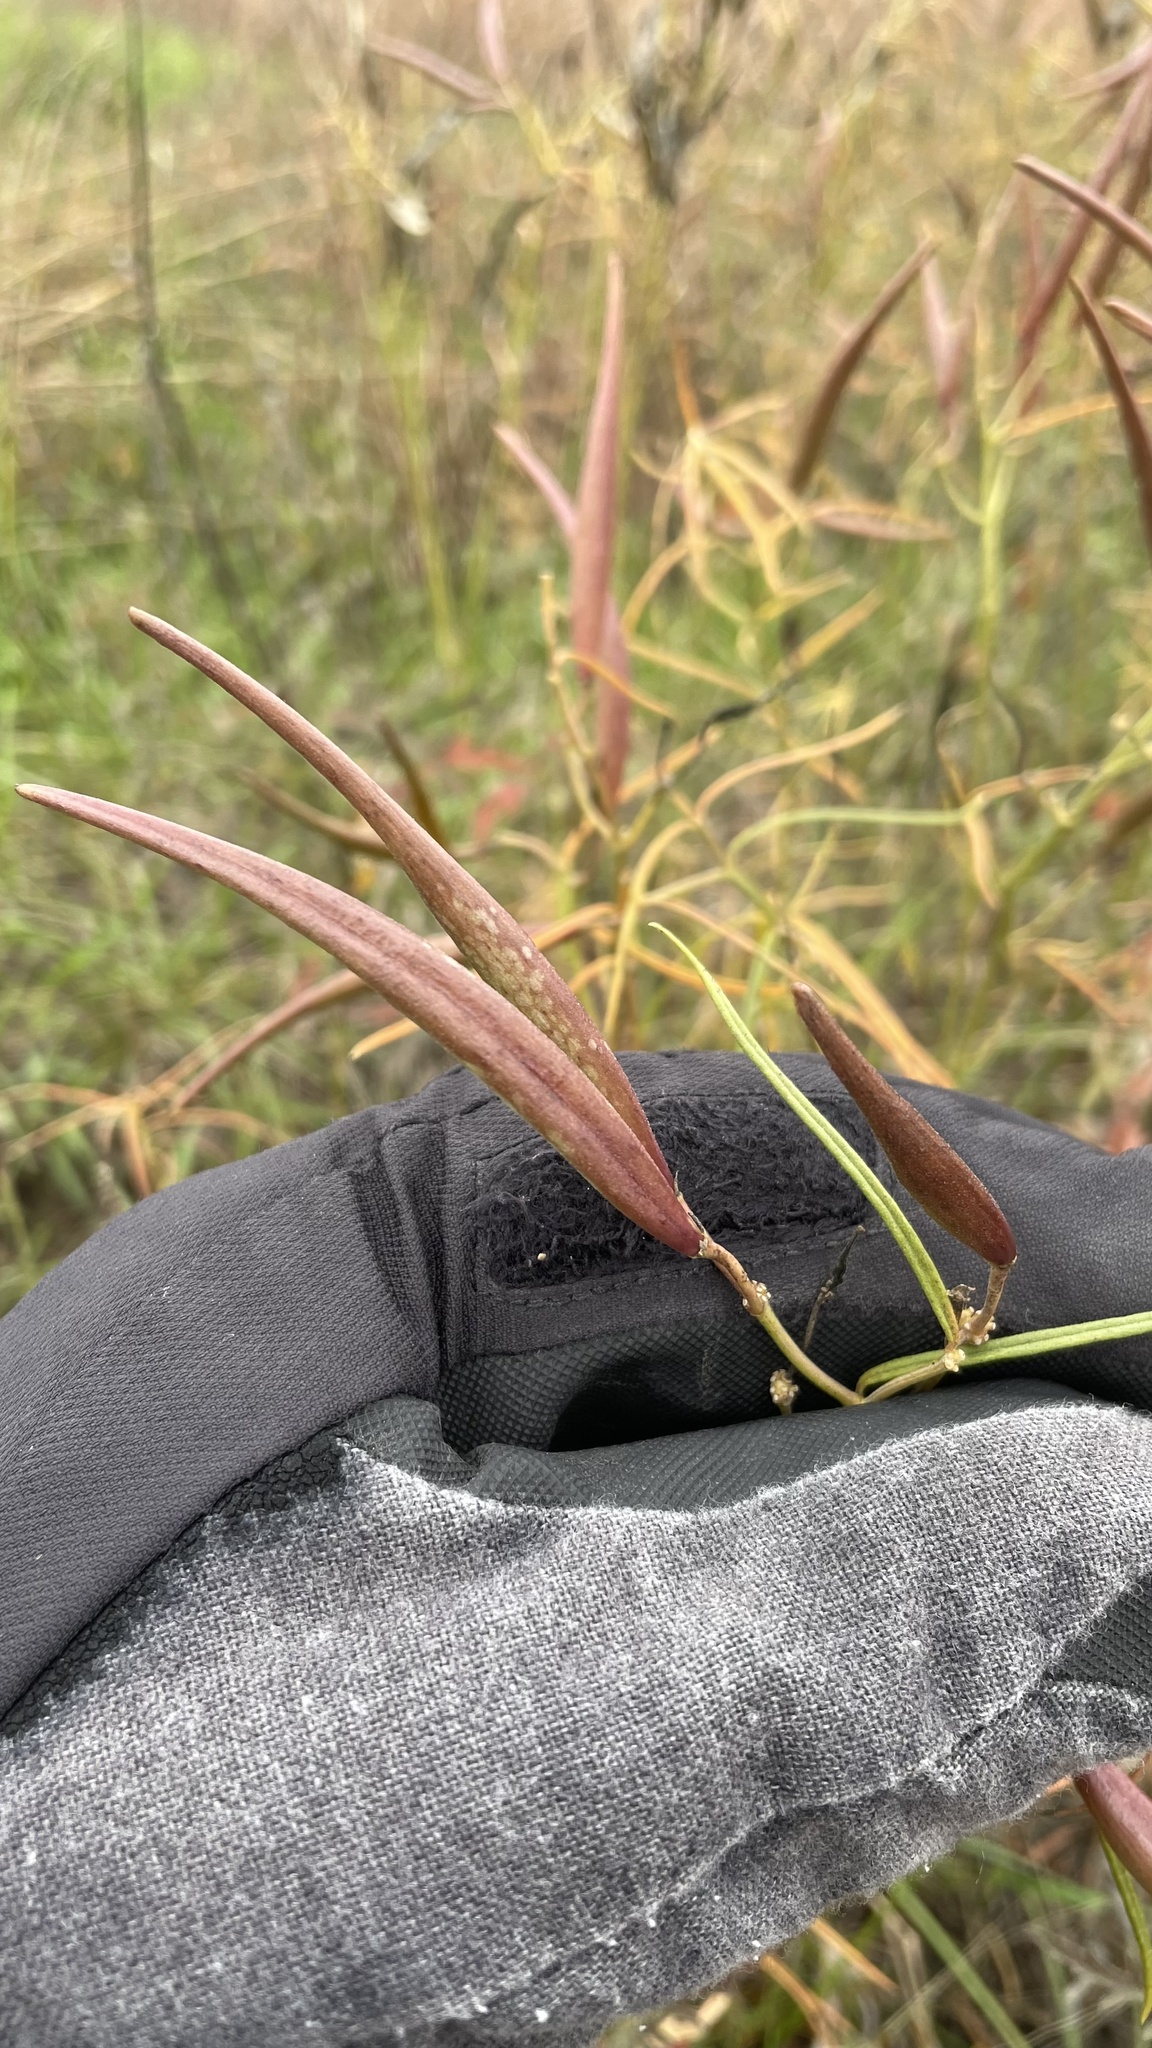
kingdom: Plantae
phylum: Tracheophyta
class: Magnoliopsida
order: Gentianales
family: Apocynaceae
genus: Asclepias
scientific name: Asclepias verticillata
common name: Eastern whorled milkweed
